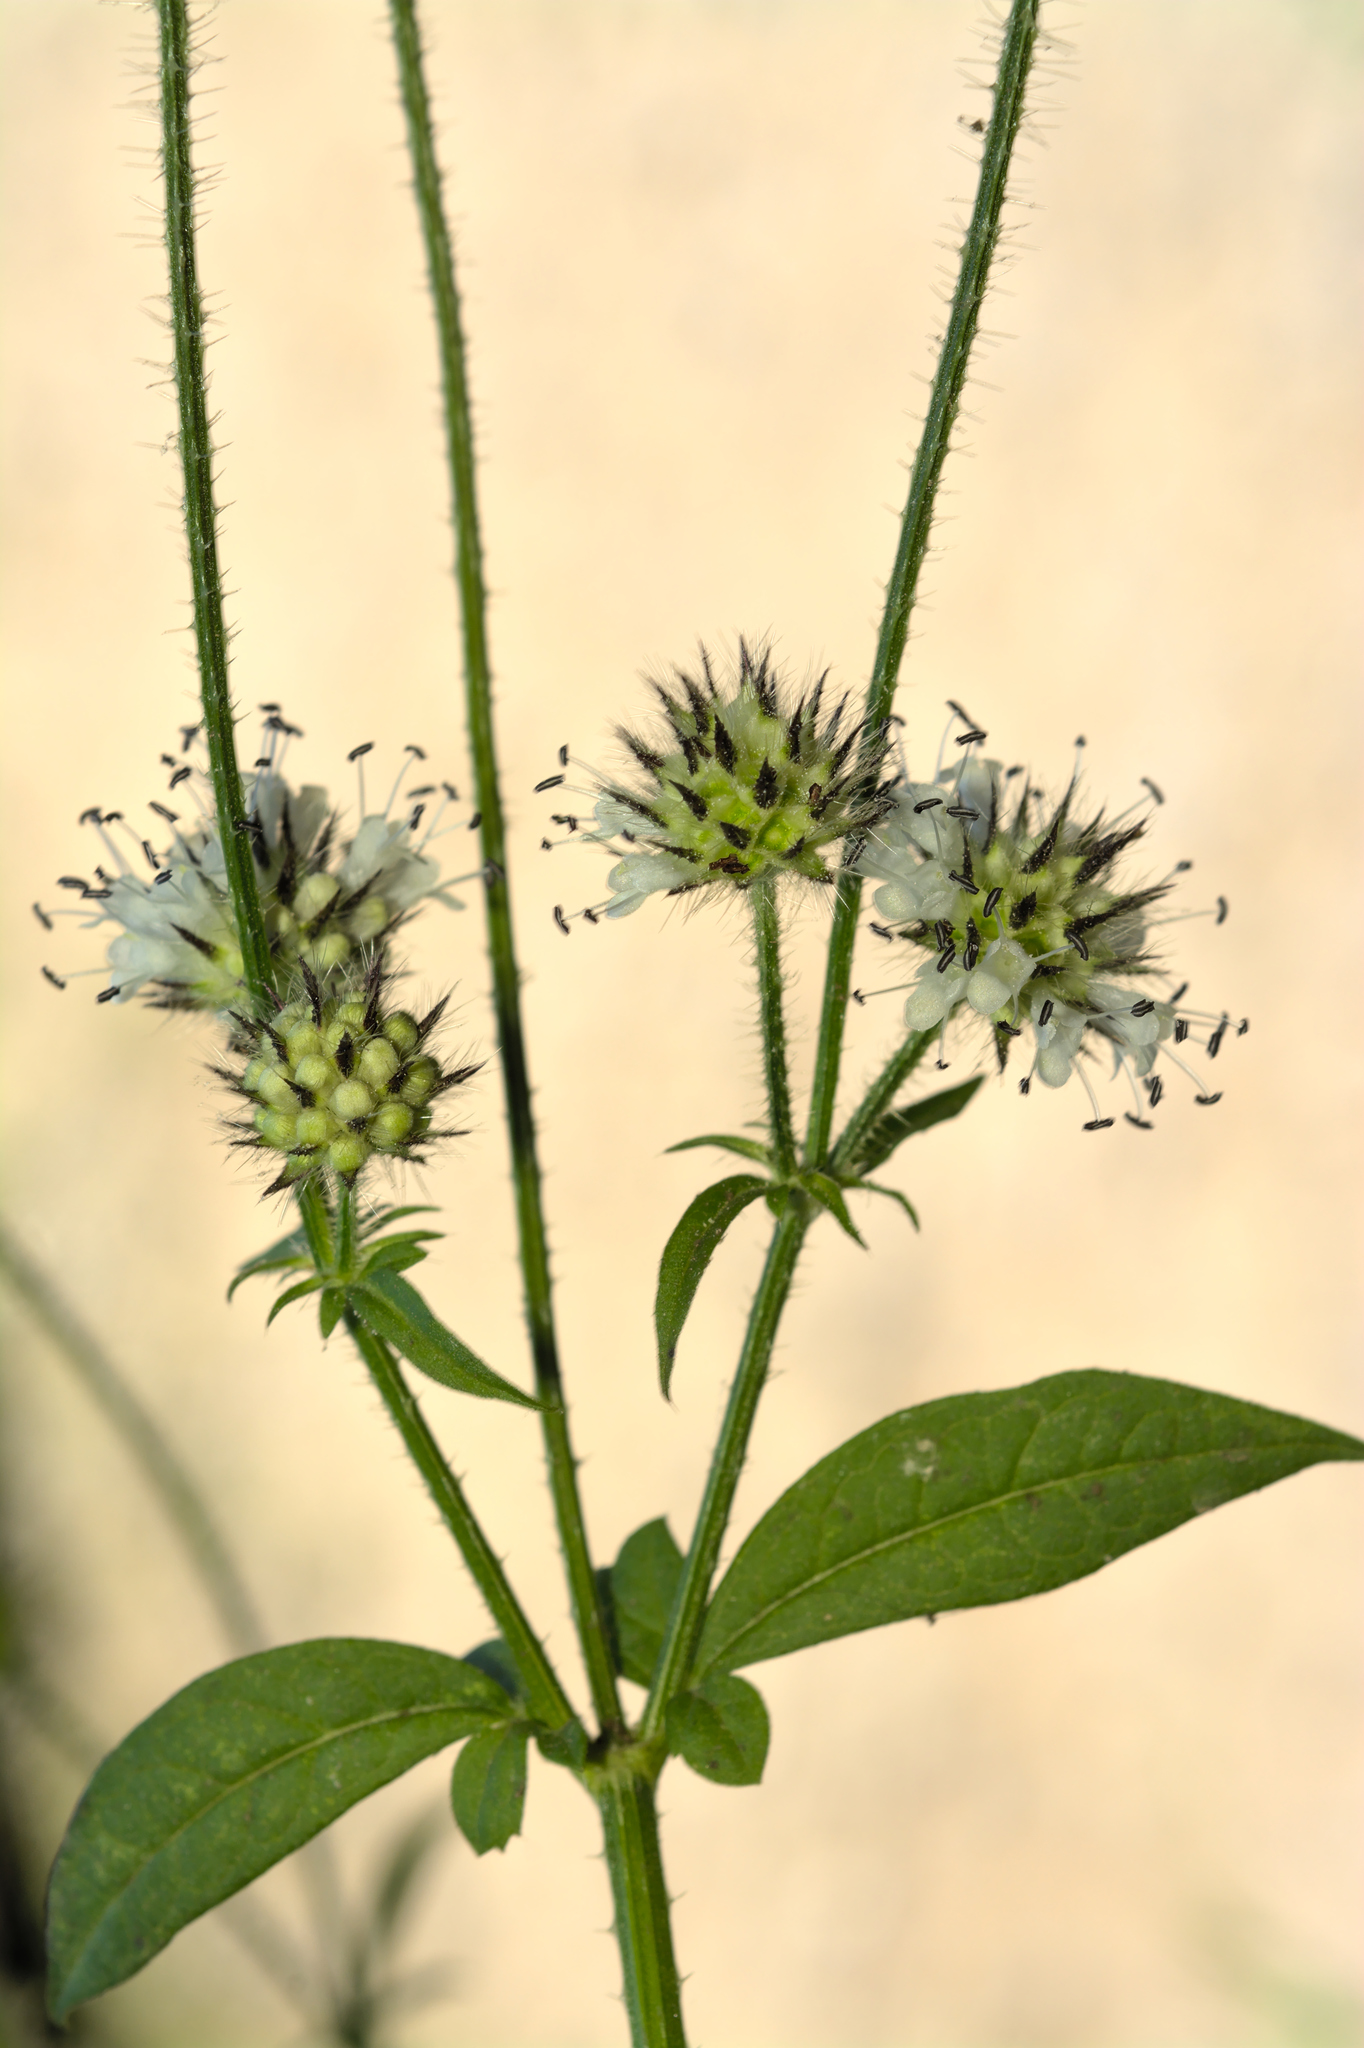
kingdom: Plantae
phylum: Tracheophyta
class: Magnoliopsida
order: Dipsacales
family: Caprifoliaceae
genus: Dipsacus
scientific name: Dipsacus pilosus
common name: Small teasel
